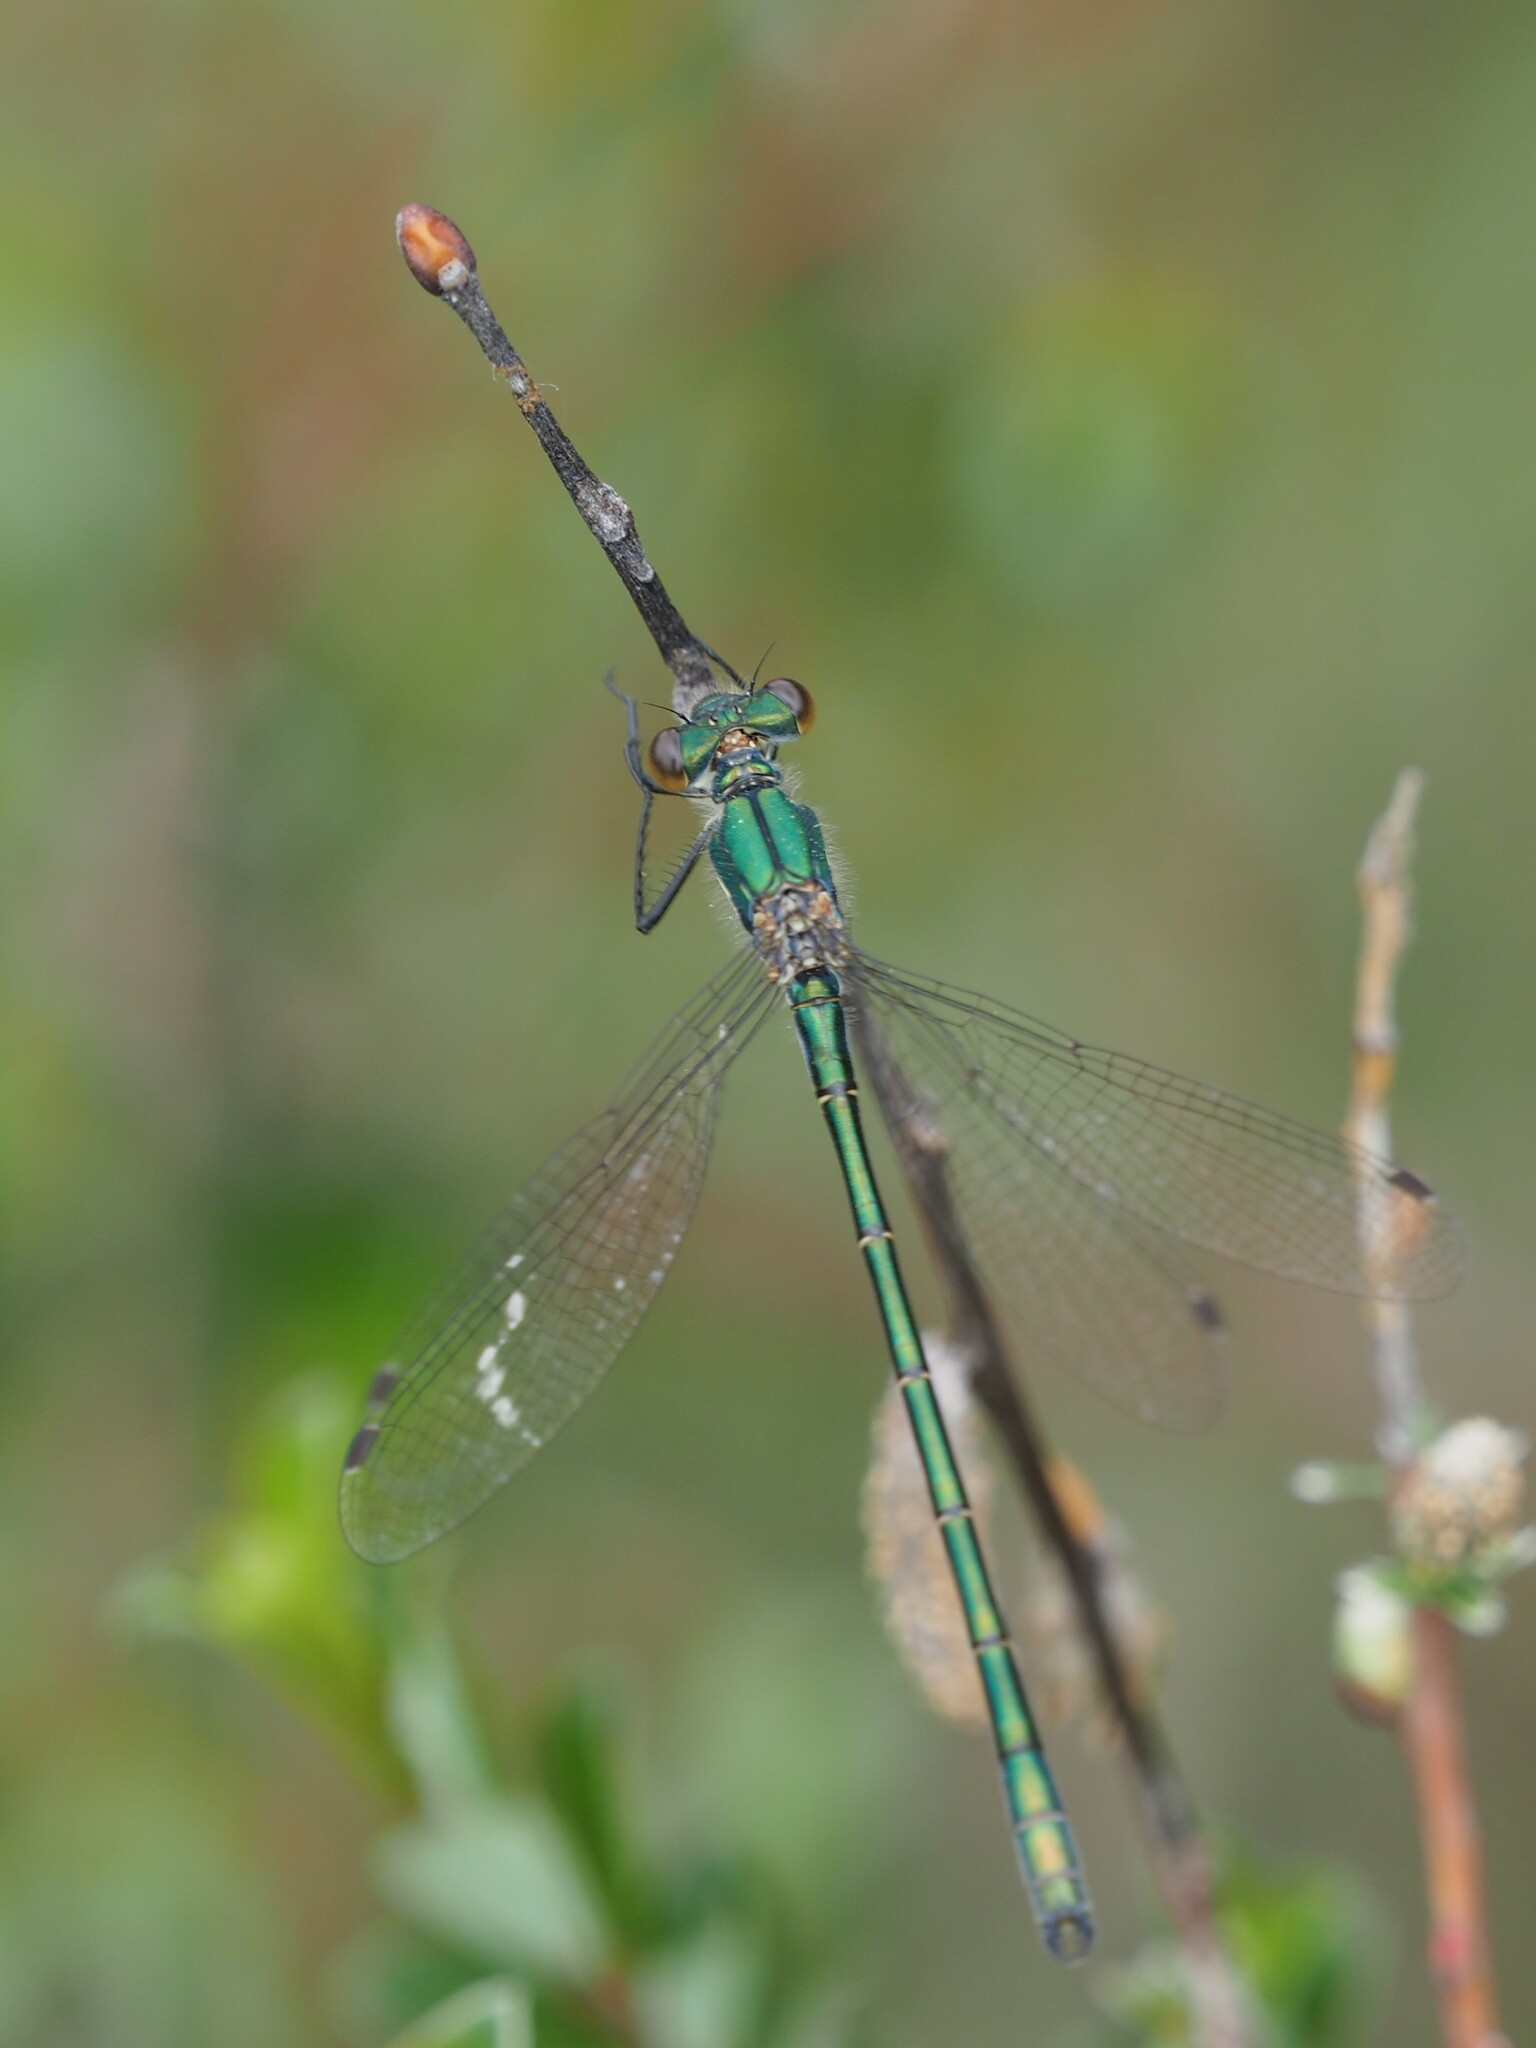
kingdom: Animalia
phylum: Arthropoda
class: Insecta
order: Odonata
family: Lestidae
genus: Lestes
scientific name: Lestes dryas
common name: Scarce emerald damselfly
